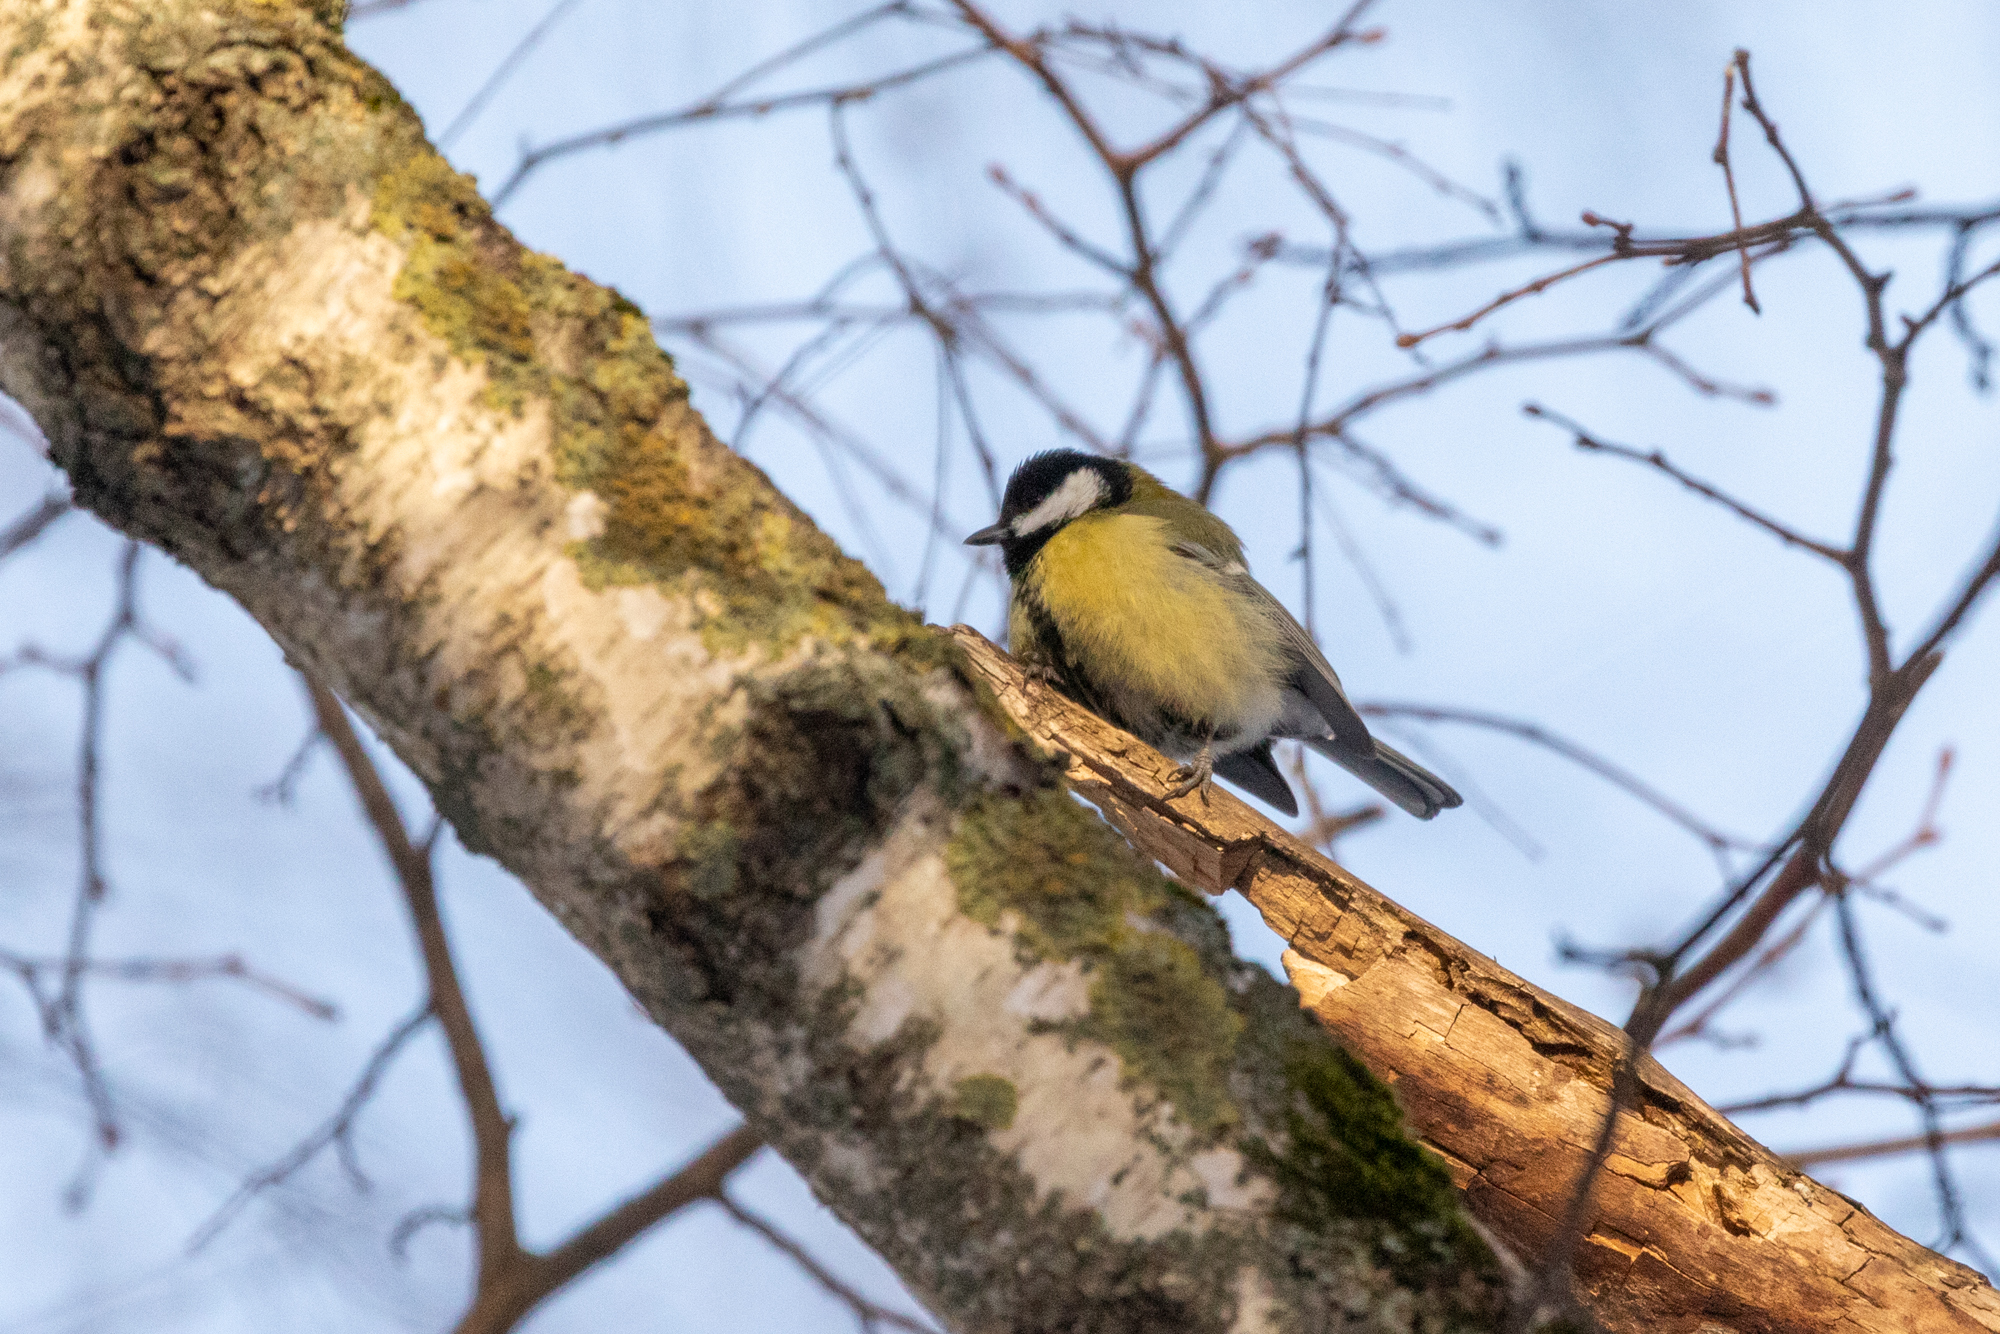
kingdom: Animalia
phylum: Chordata
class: Aves
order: Passeriformes
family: Paridae
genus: Parus
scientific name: Parus major
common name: Great tit
